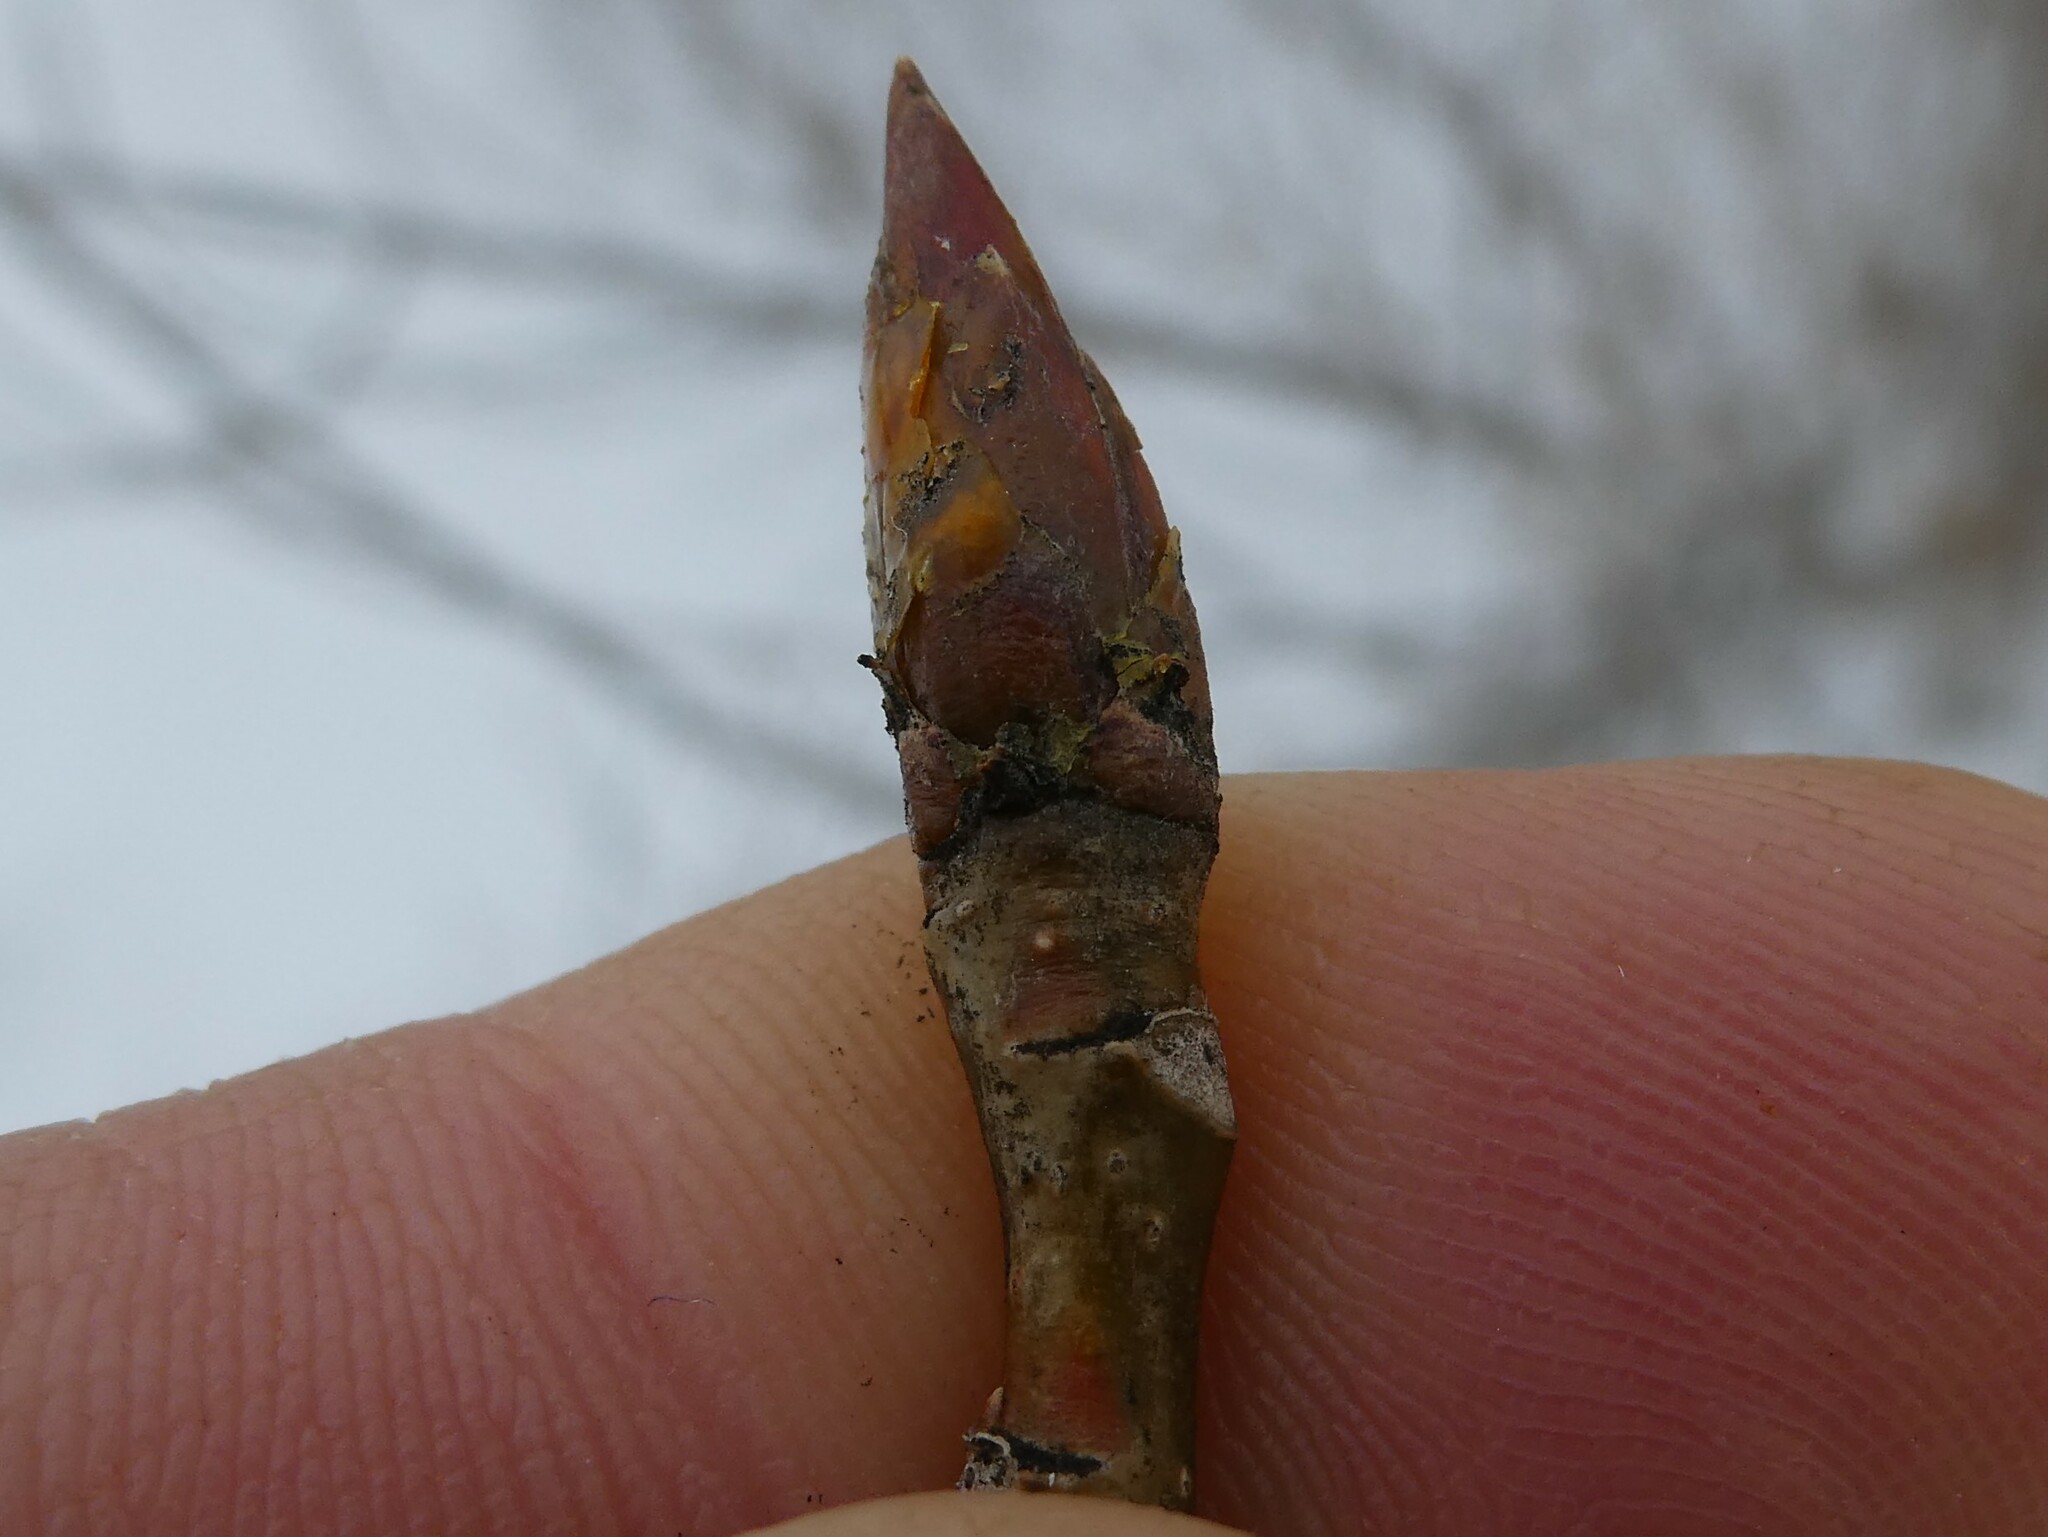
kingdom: Animalia
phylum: Arthropoda
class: Insecta
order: Hemiptera
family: Aphididae
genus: Mordwilkoja
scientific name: Mordwilkoja vagabunda
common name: Poplar vagabond aphid
